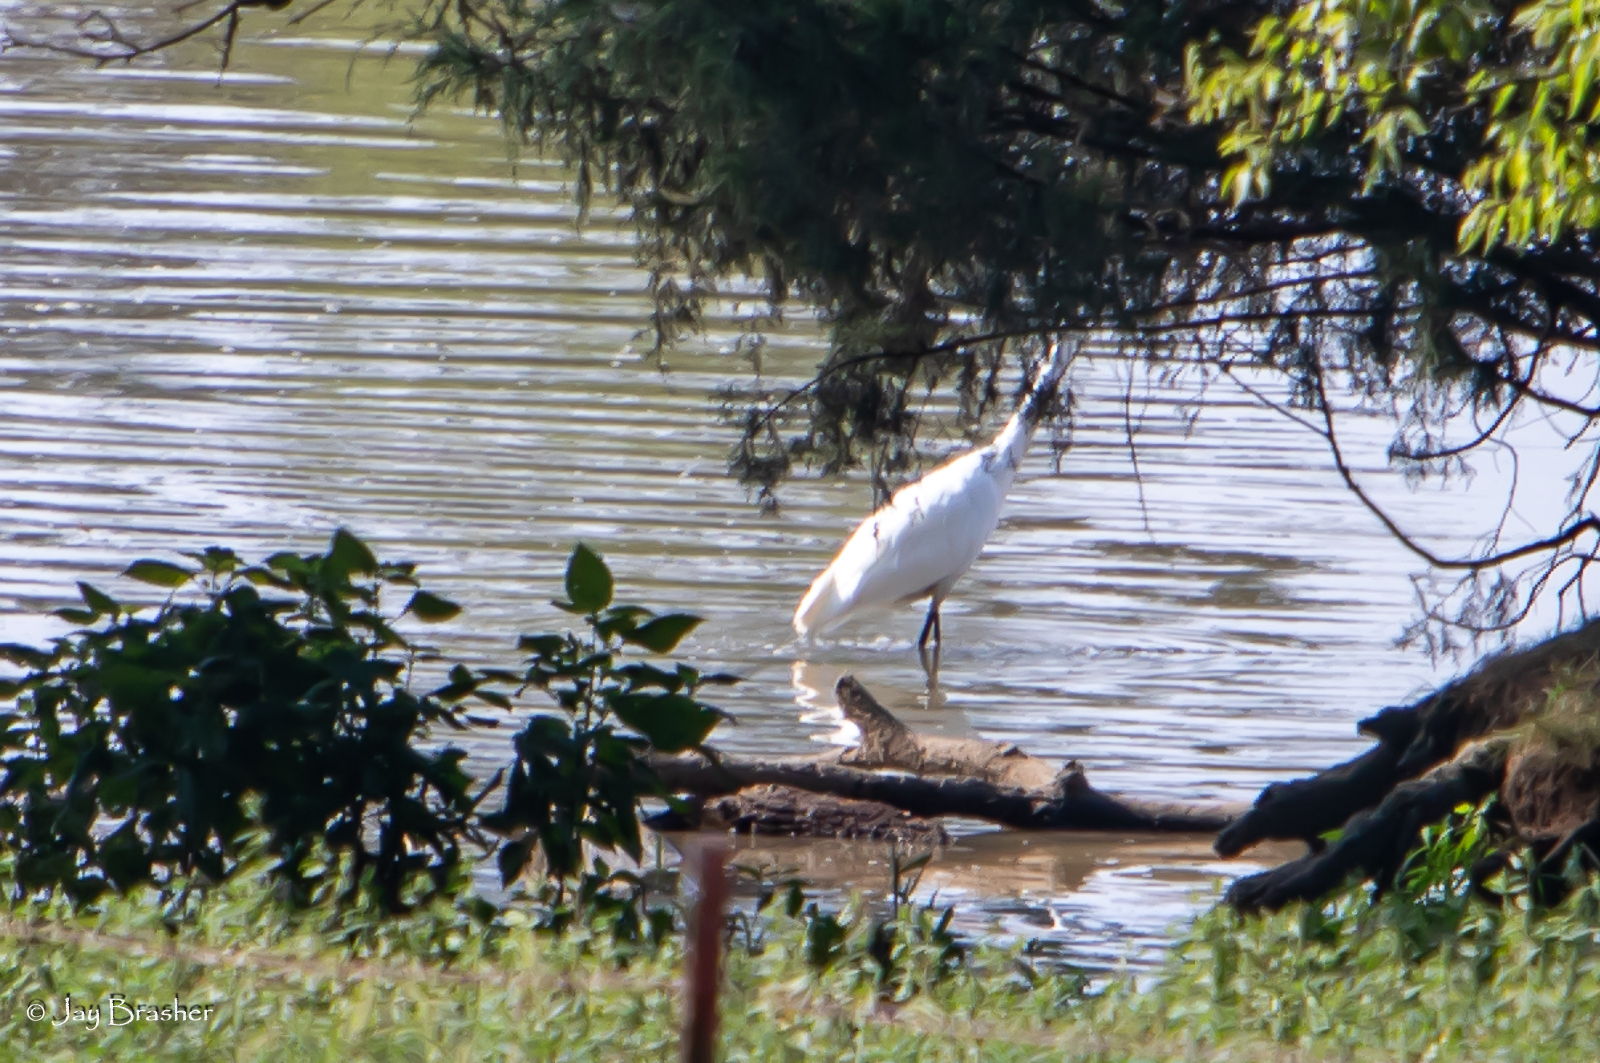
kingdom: Animalia
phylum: Chordata
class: Aves
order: Pelecaniformes
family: Ardeidae
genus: Ardea
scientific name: Ardea alba
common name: Great egret
